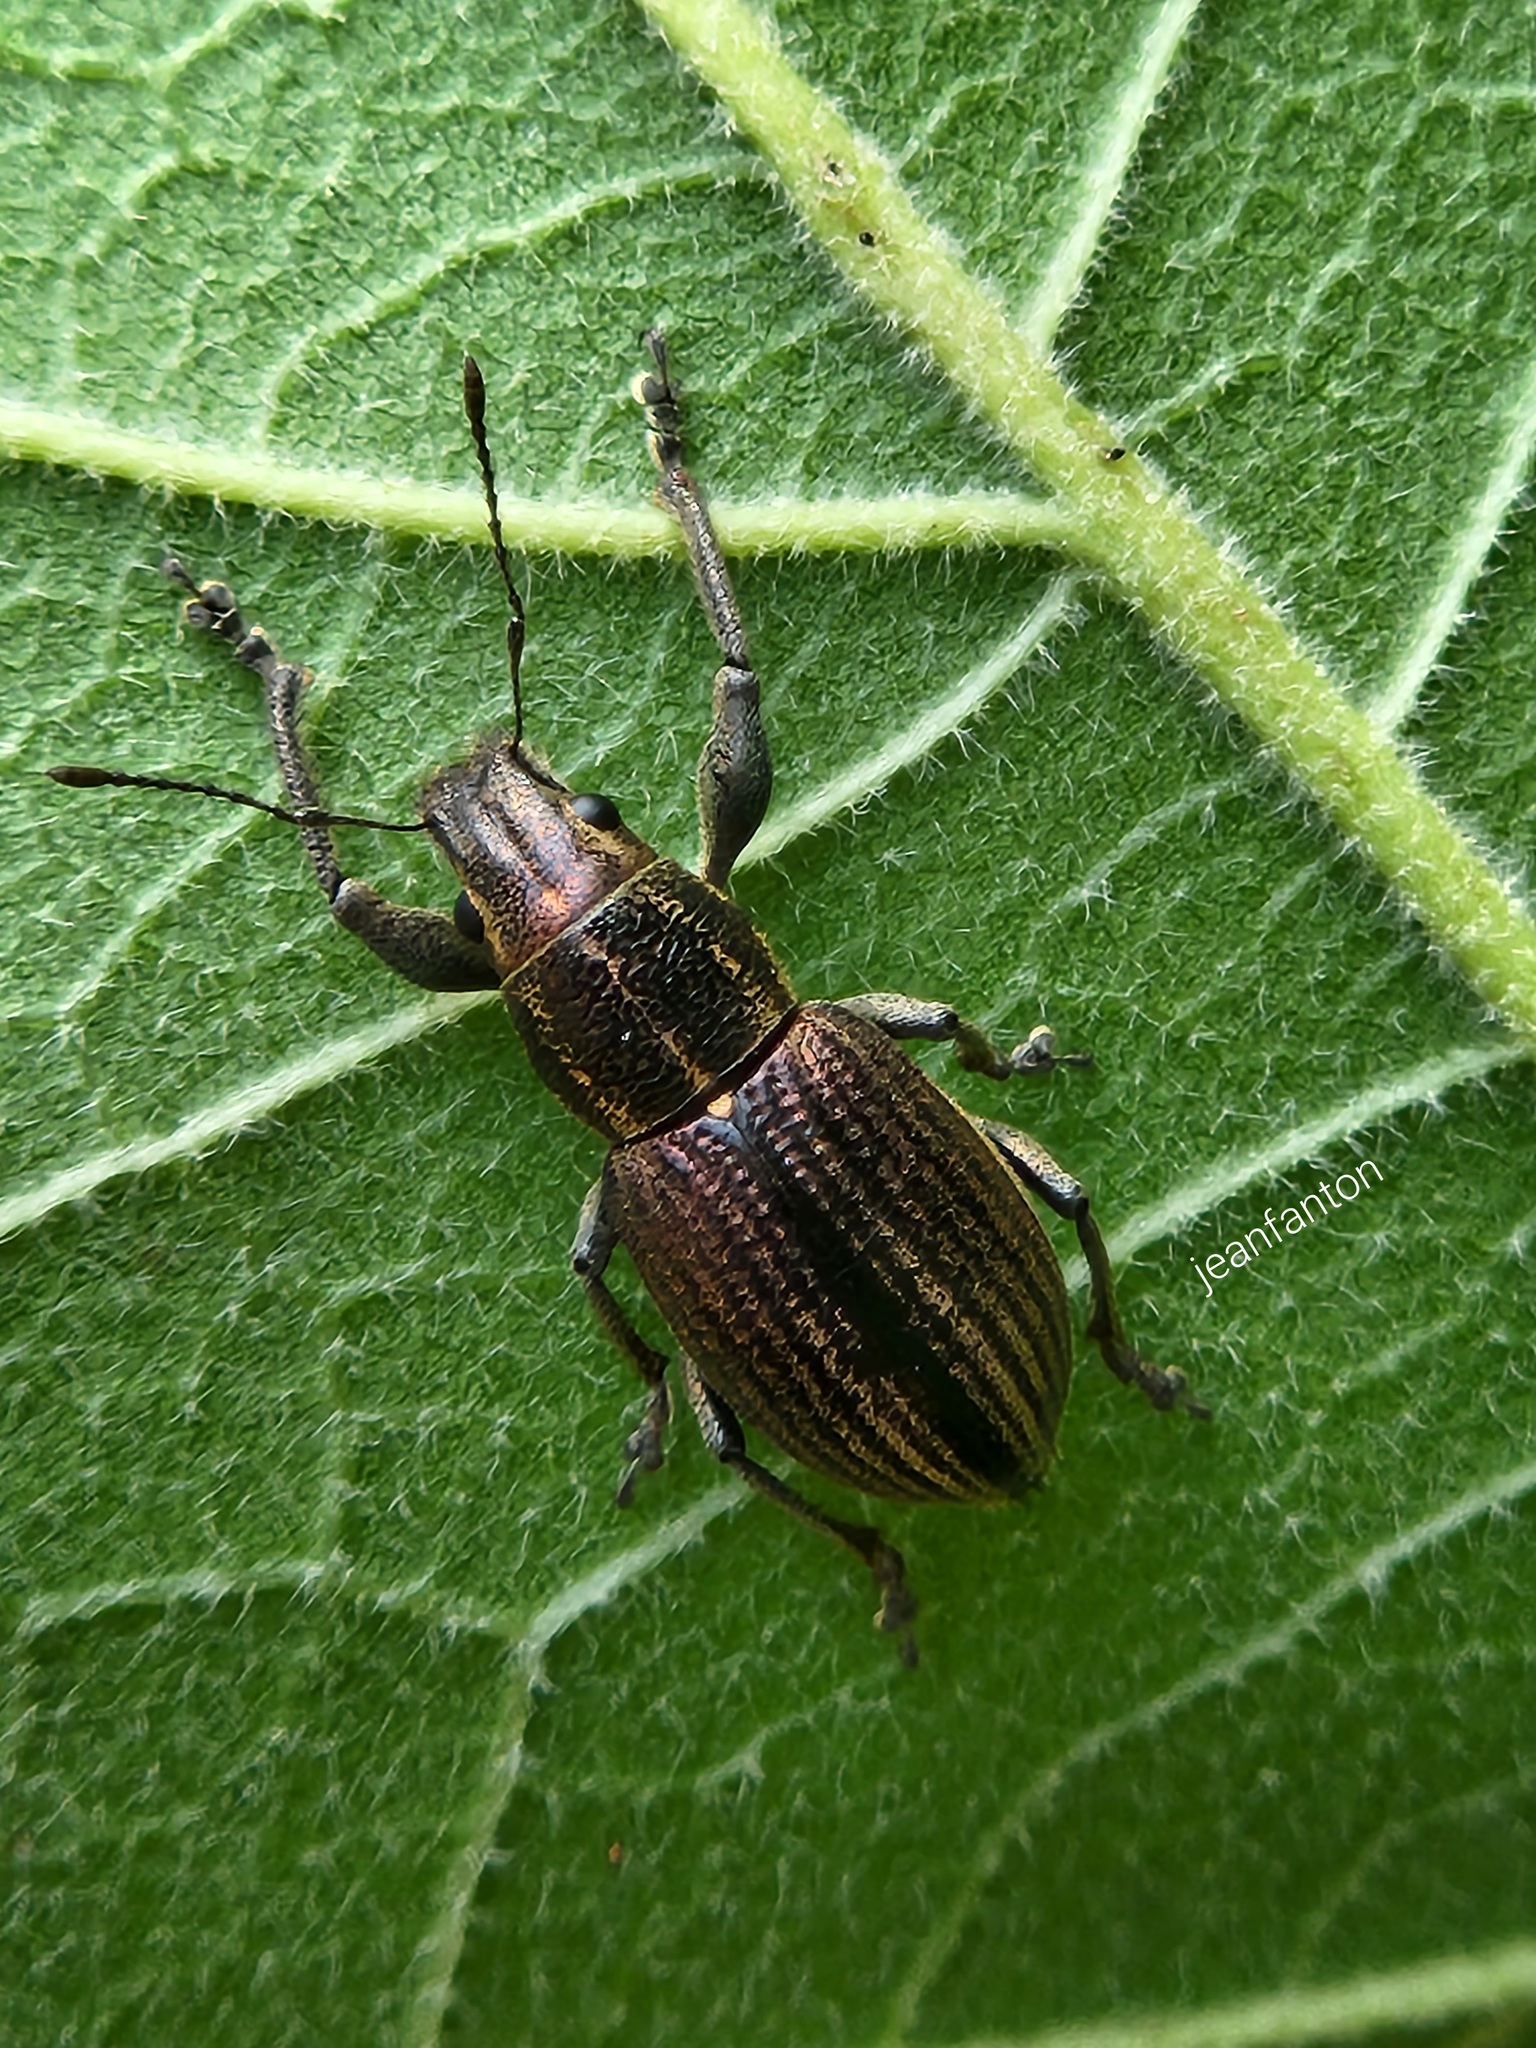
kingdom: Animalia
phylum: Arthropoda
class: Insecta
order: Coleoptera
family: Curculionidae
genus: Naupactus
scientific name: Naupactus tremolerasi
